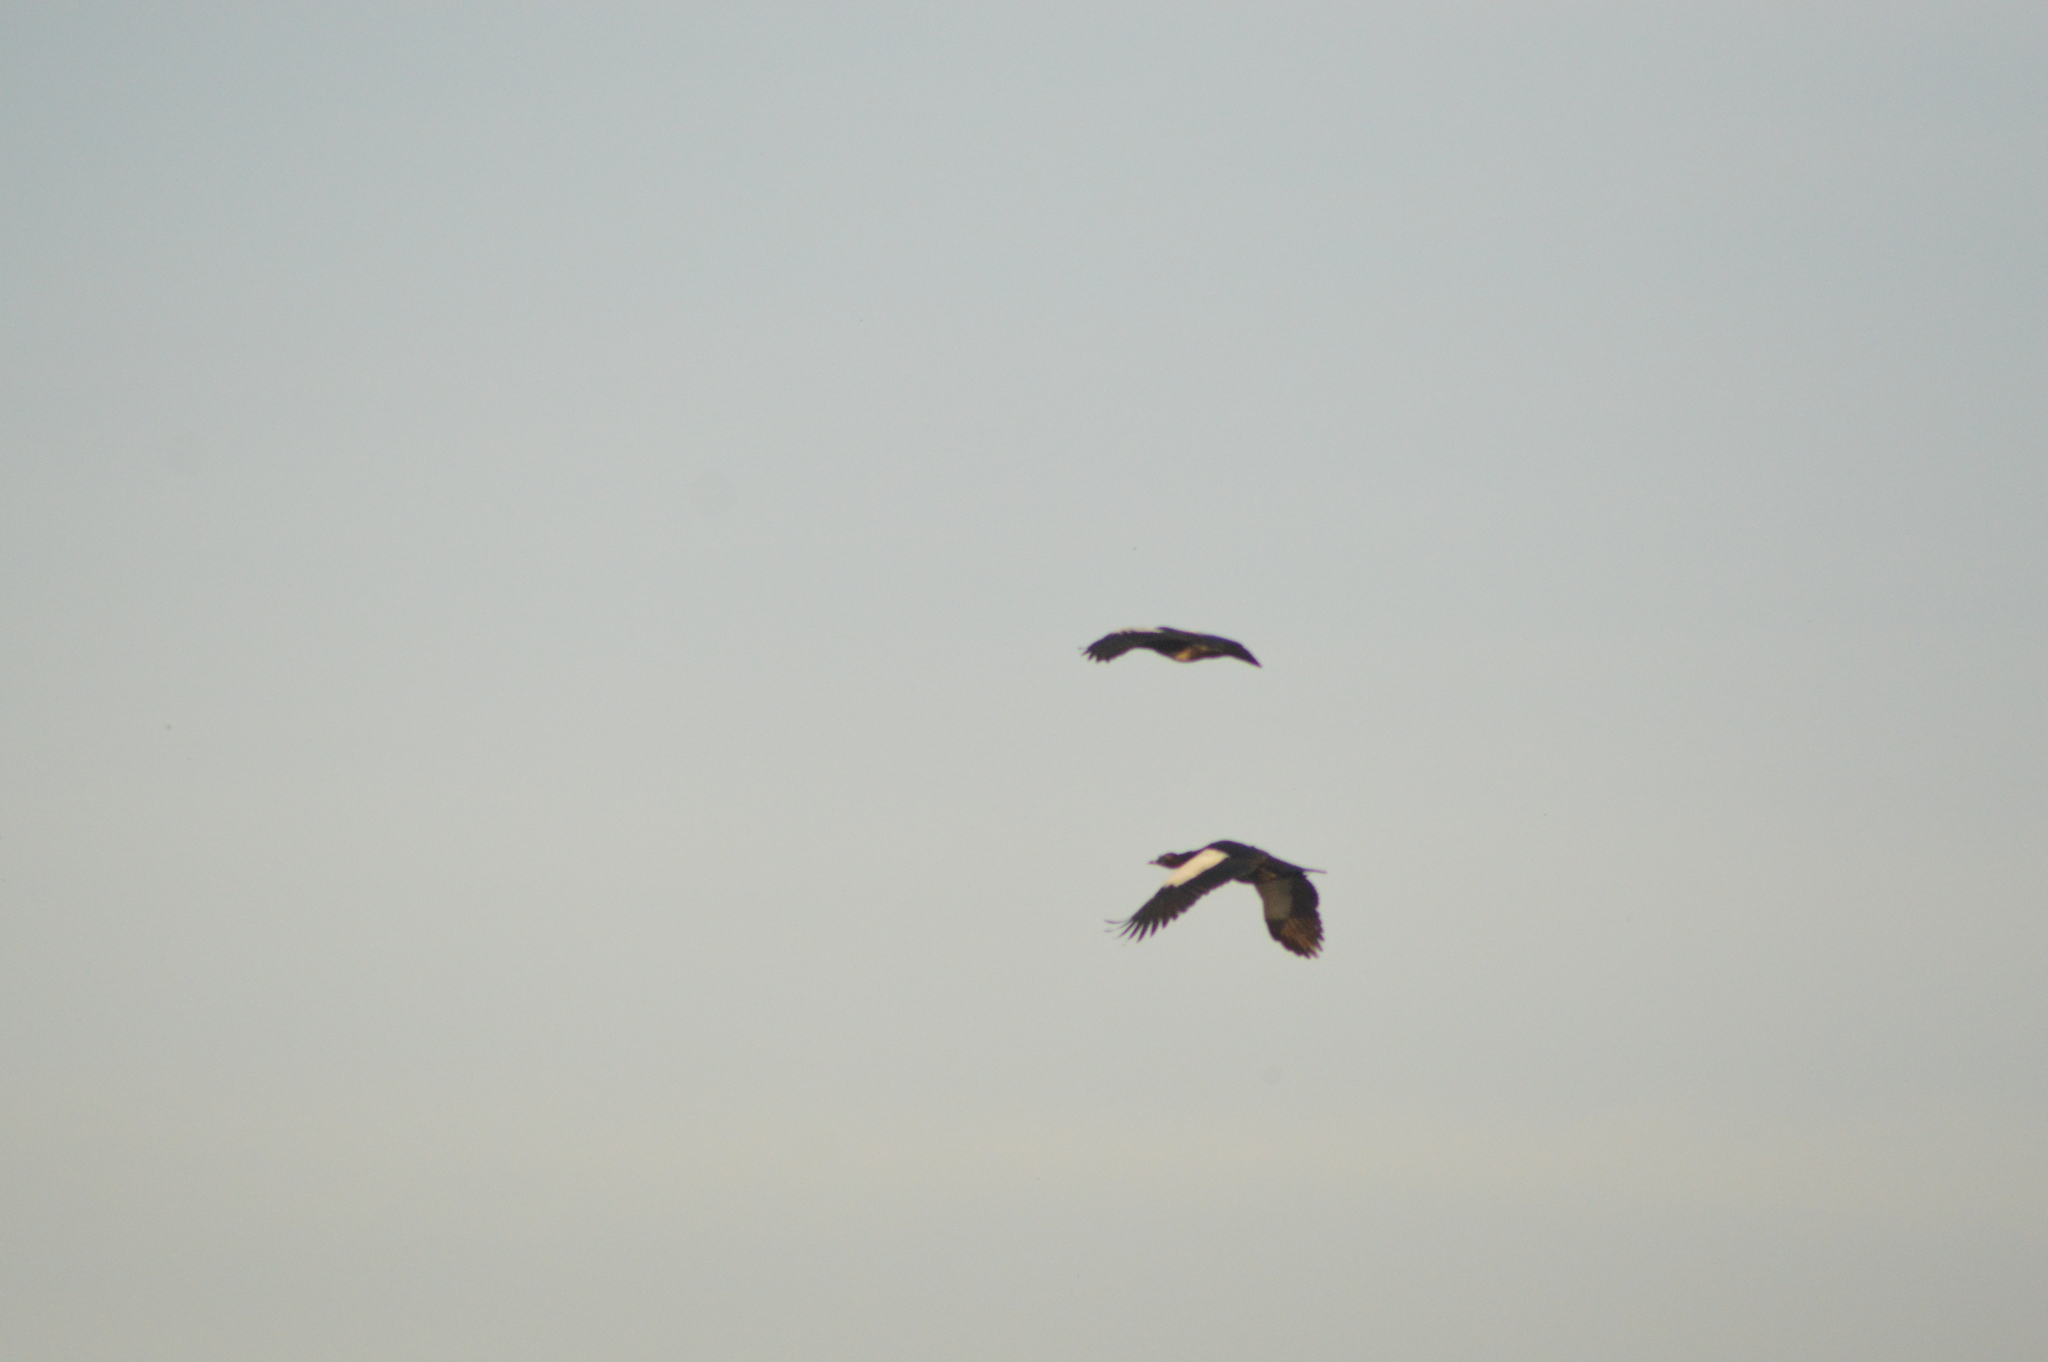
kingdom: Animalia
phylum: Chordata
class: Aves
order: Anseriformes
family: Anatidae
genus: Cairina
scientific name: Cairina moschata
